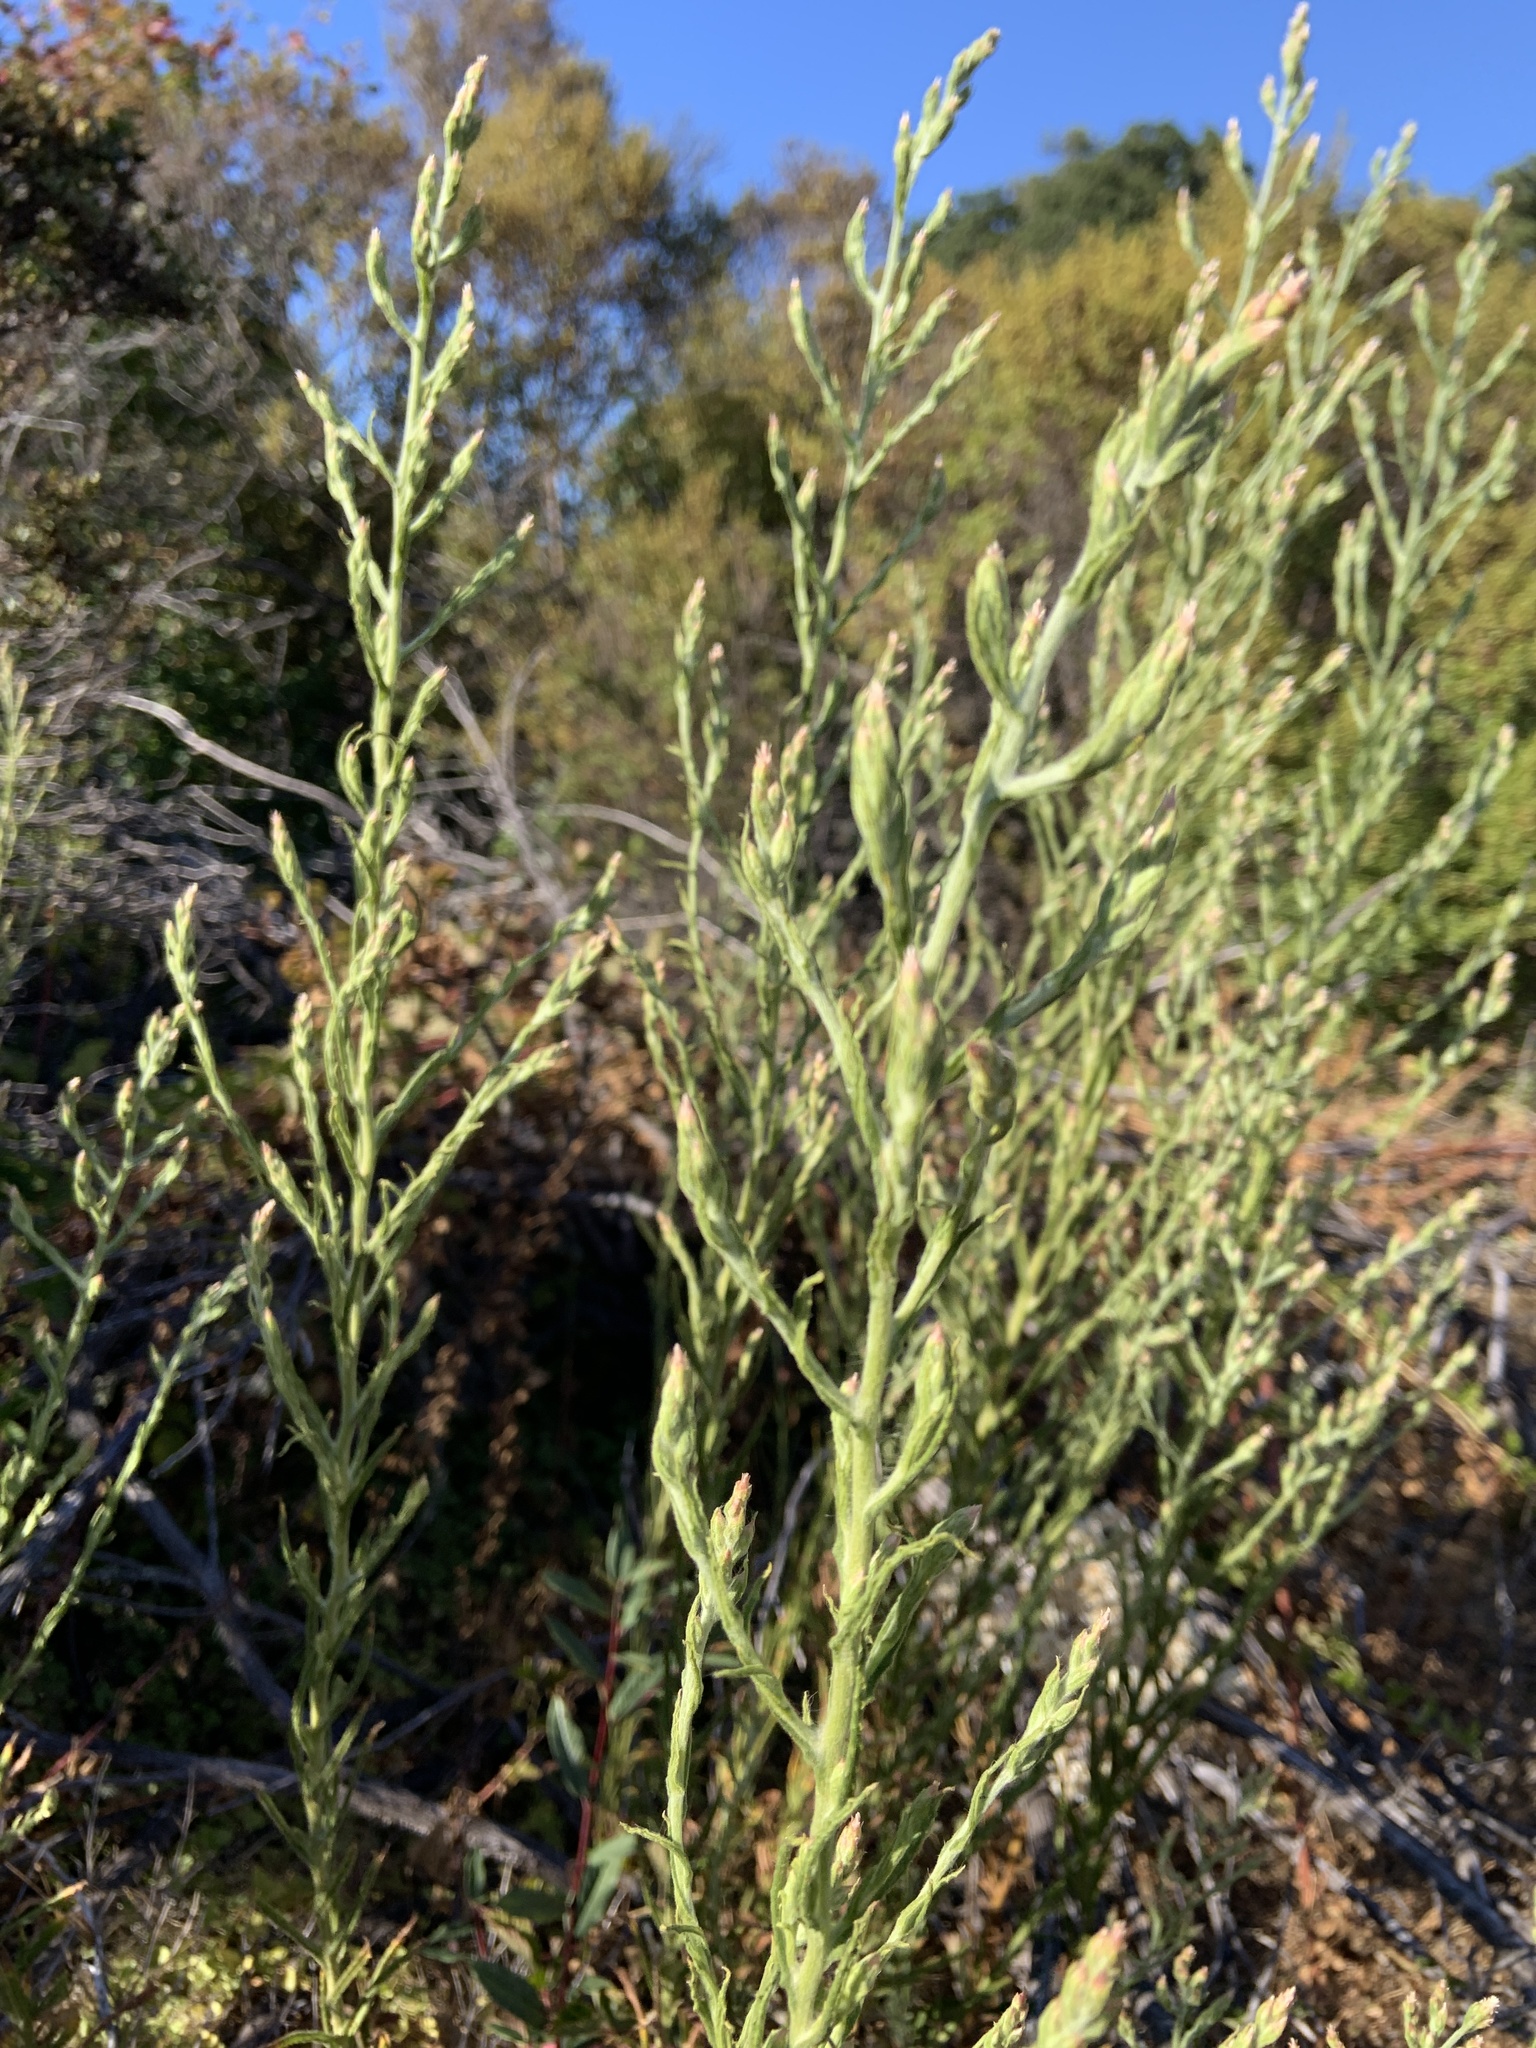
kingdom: Plantae
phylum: Tracheophyta
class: Magnoliopsida
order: Asterales
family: Asteraceae
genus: Pseudognaphalium
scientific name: Pseudognaphalium ramosissimum
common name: Pink rabbit-tobacco
